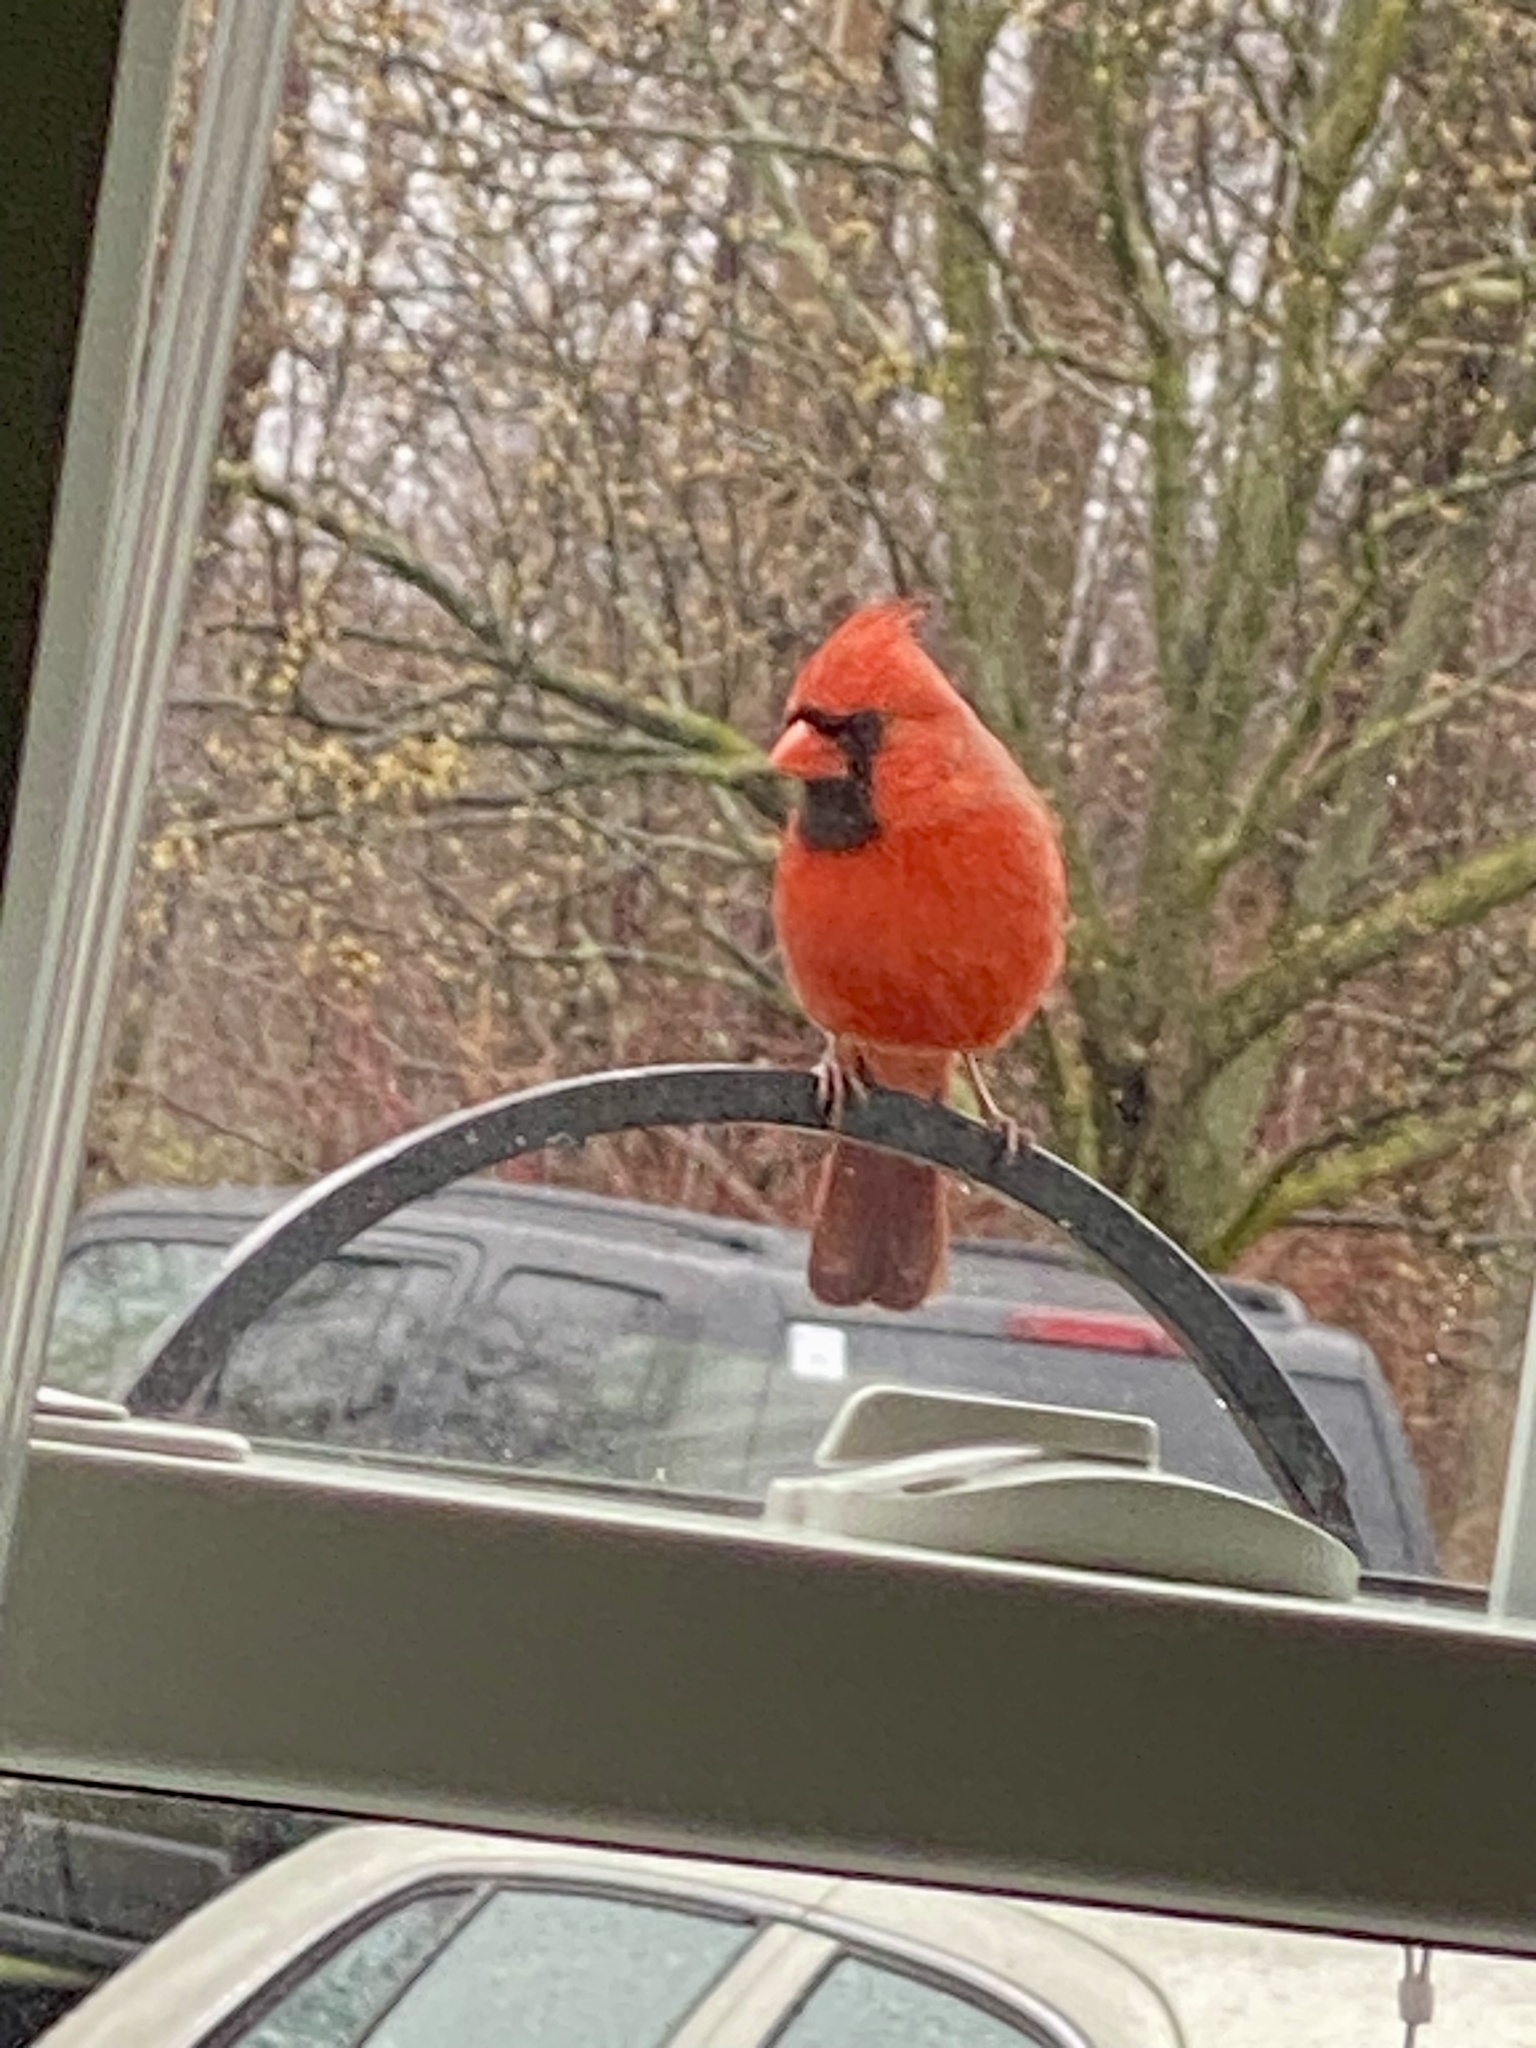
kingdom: Animalia
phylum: Chordata
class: Aves
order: Passeriformes
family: Cardinalidae
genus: Cardinalis
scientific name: Cardinalis cardinalis
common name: Northern cardinal
